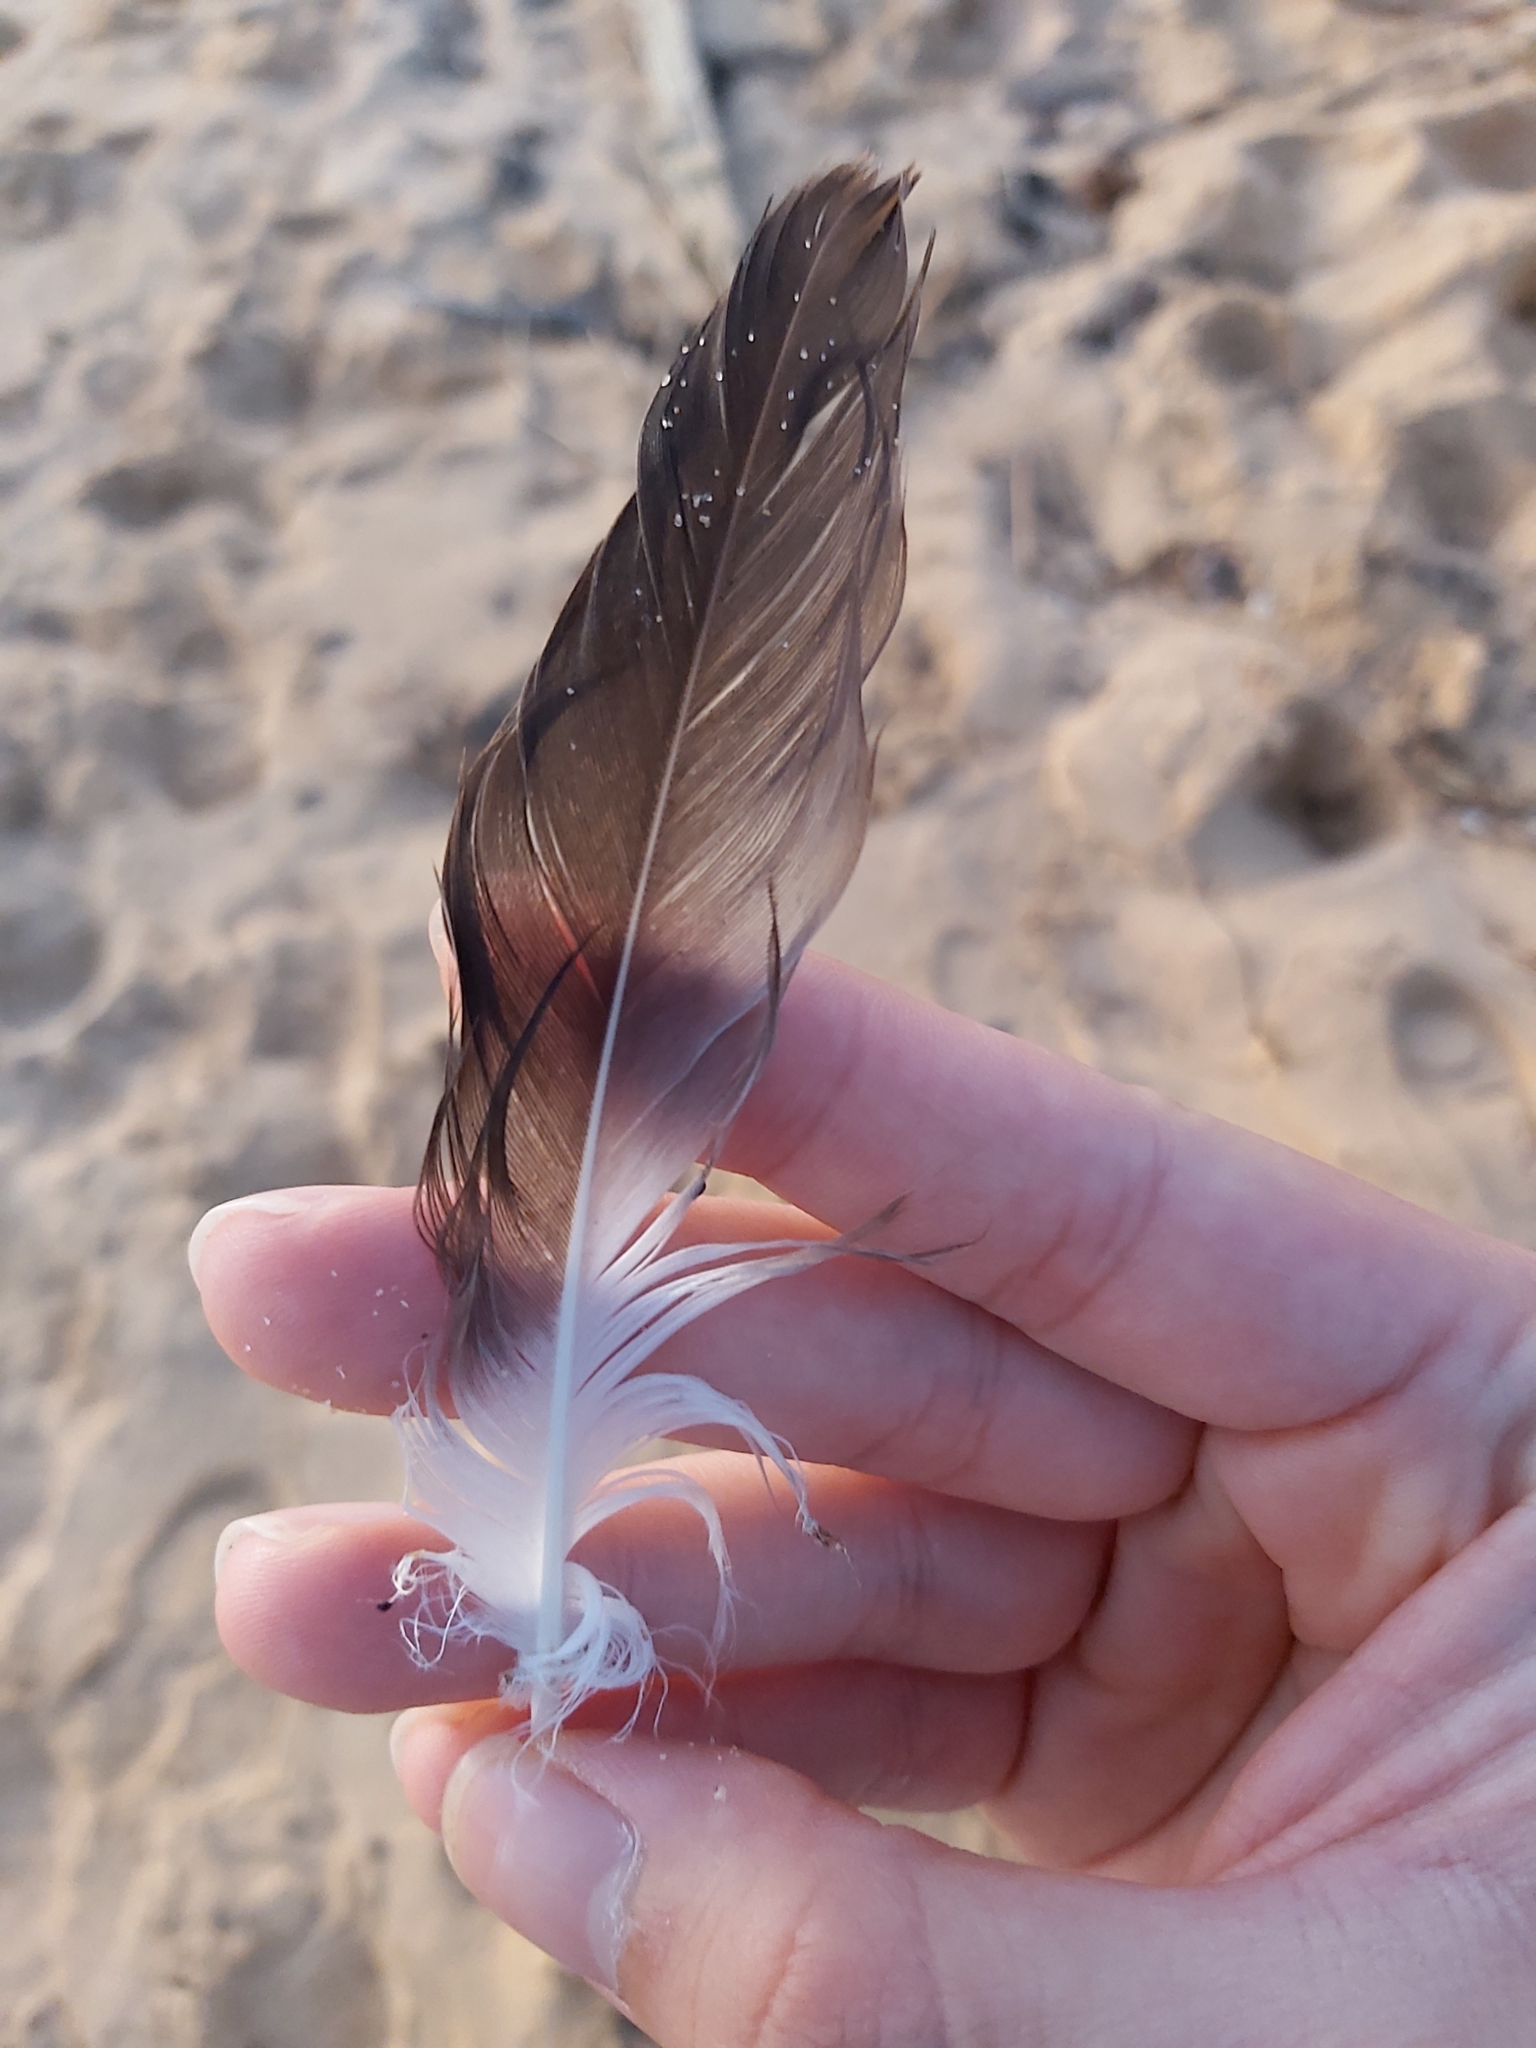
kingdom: Animalia
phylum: Chordata
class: Aves
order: Suliformes
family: Sulidae
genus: Morus
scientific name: Morus serrator
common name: Australasian gannet
